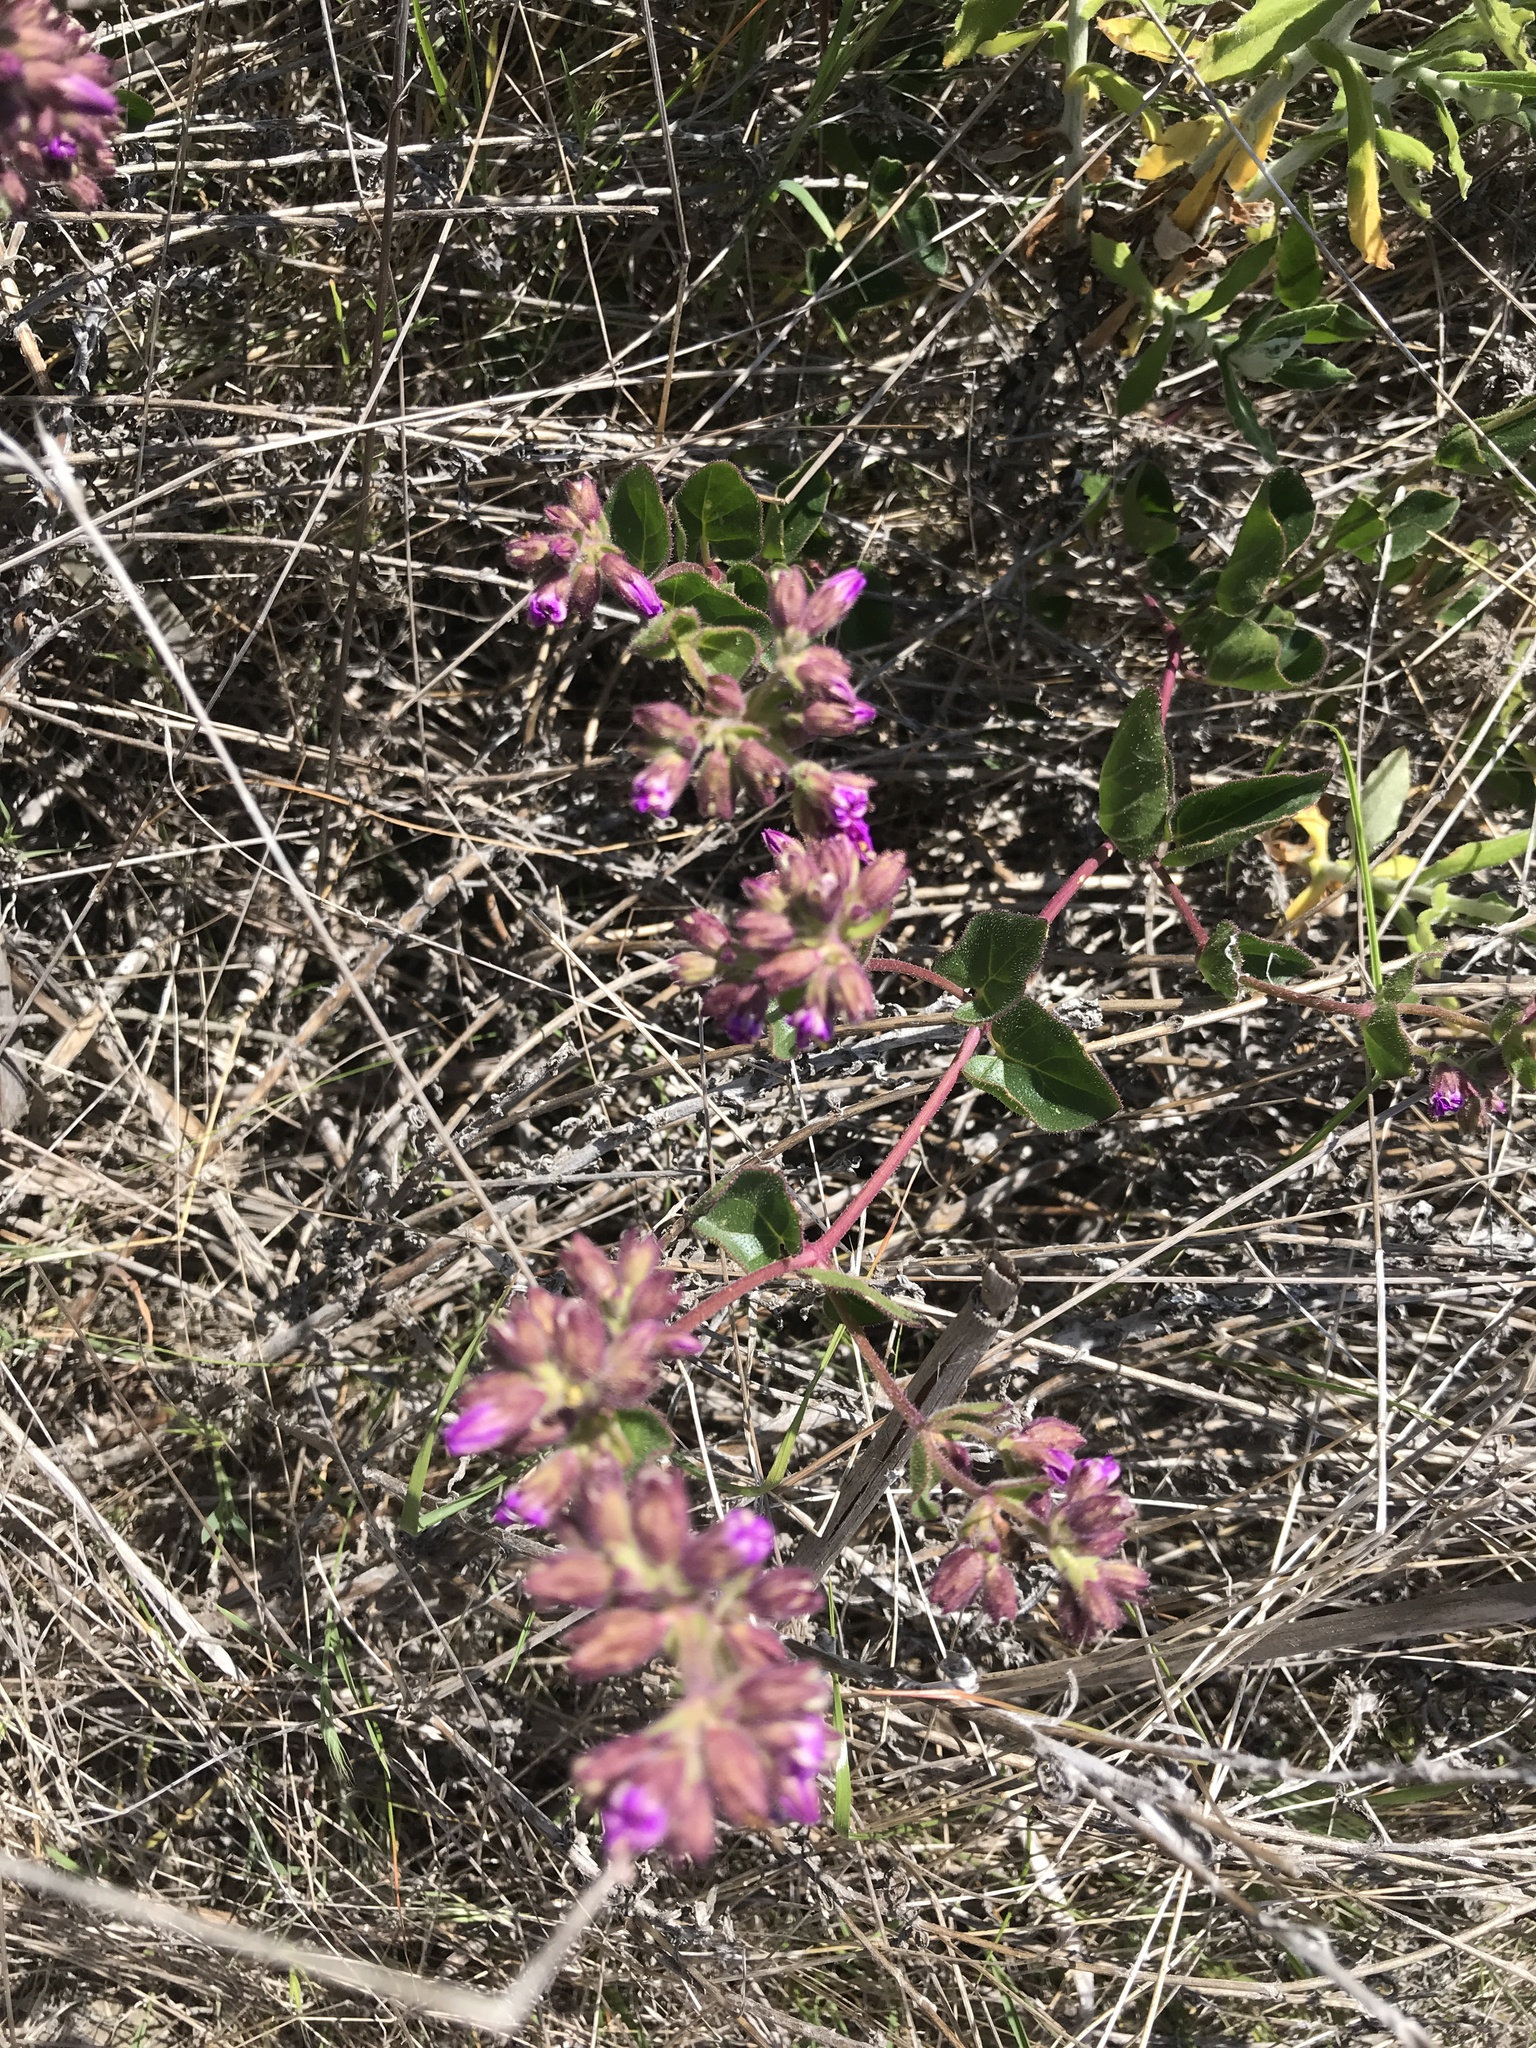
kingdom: Plantae
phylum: Tracheophyta
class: Magnoliopsida
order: Caryophyllales
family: Nyctaginaceae
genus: Mirabilis
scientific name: Mirabilis laevis
